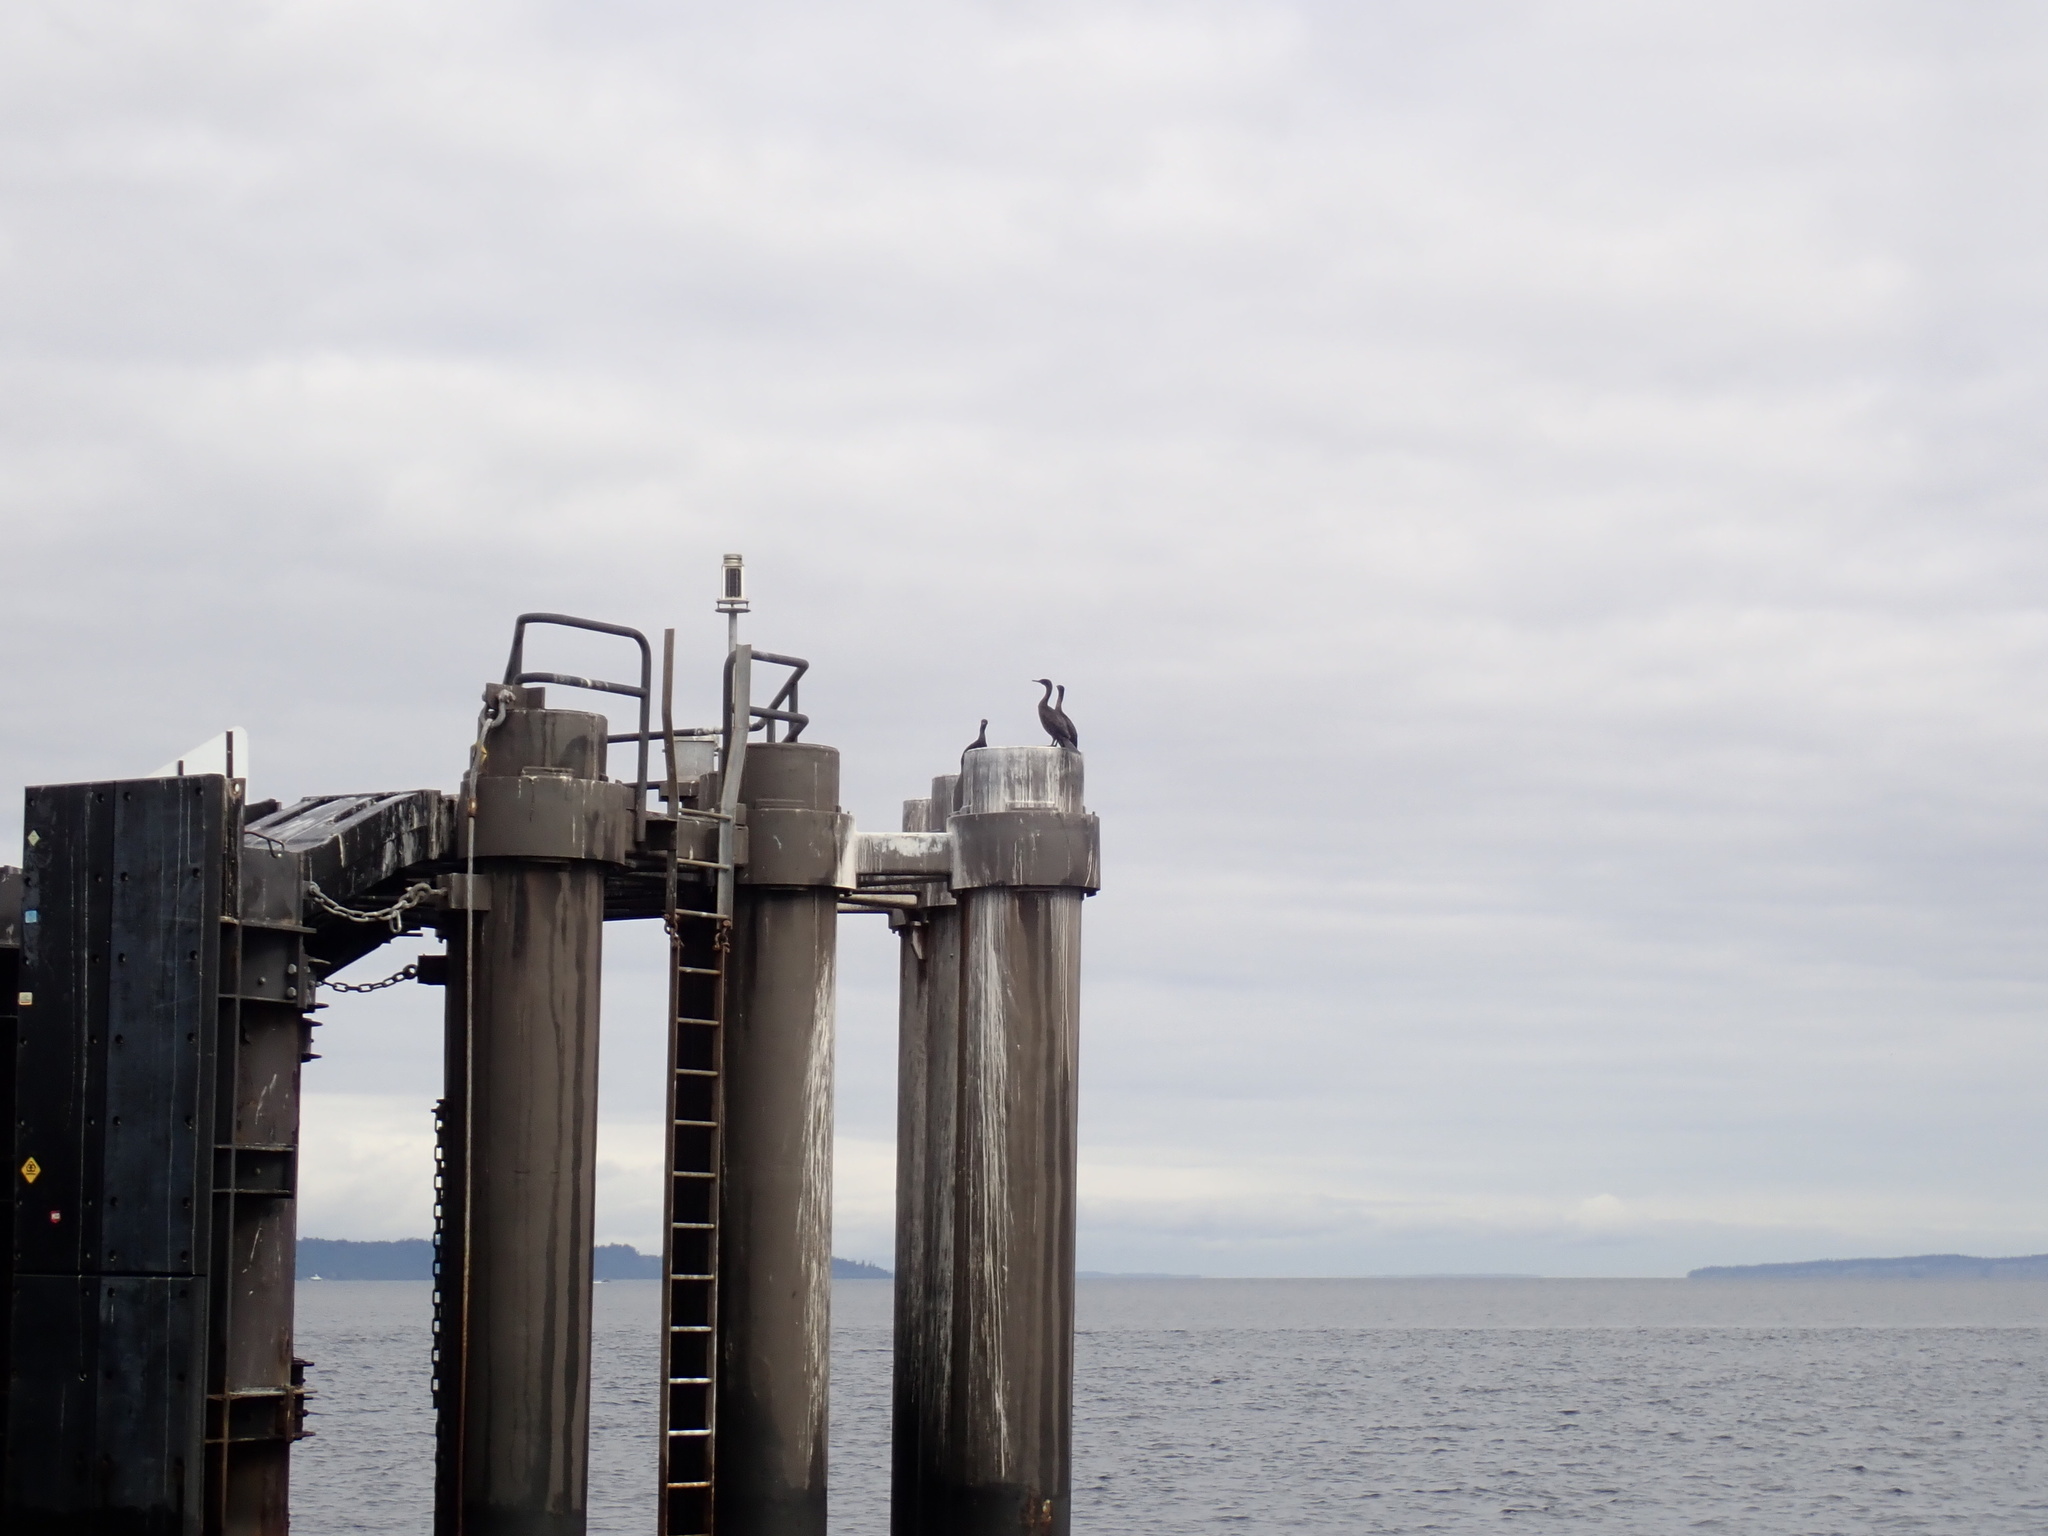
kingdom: Animalia
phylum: Chordata
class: Aves
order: Suliformes
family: Phalacrocoracidae
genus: Phalacrocorax
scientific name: Phalacrocorax pelagicus
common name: Pelagic cormorant
